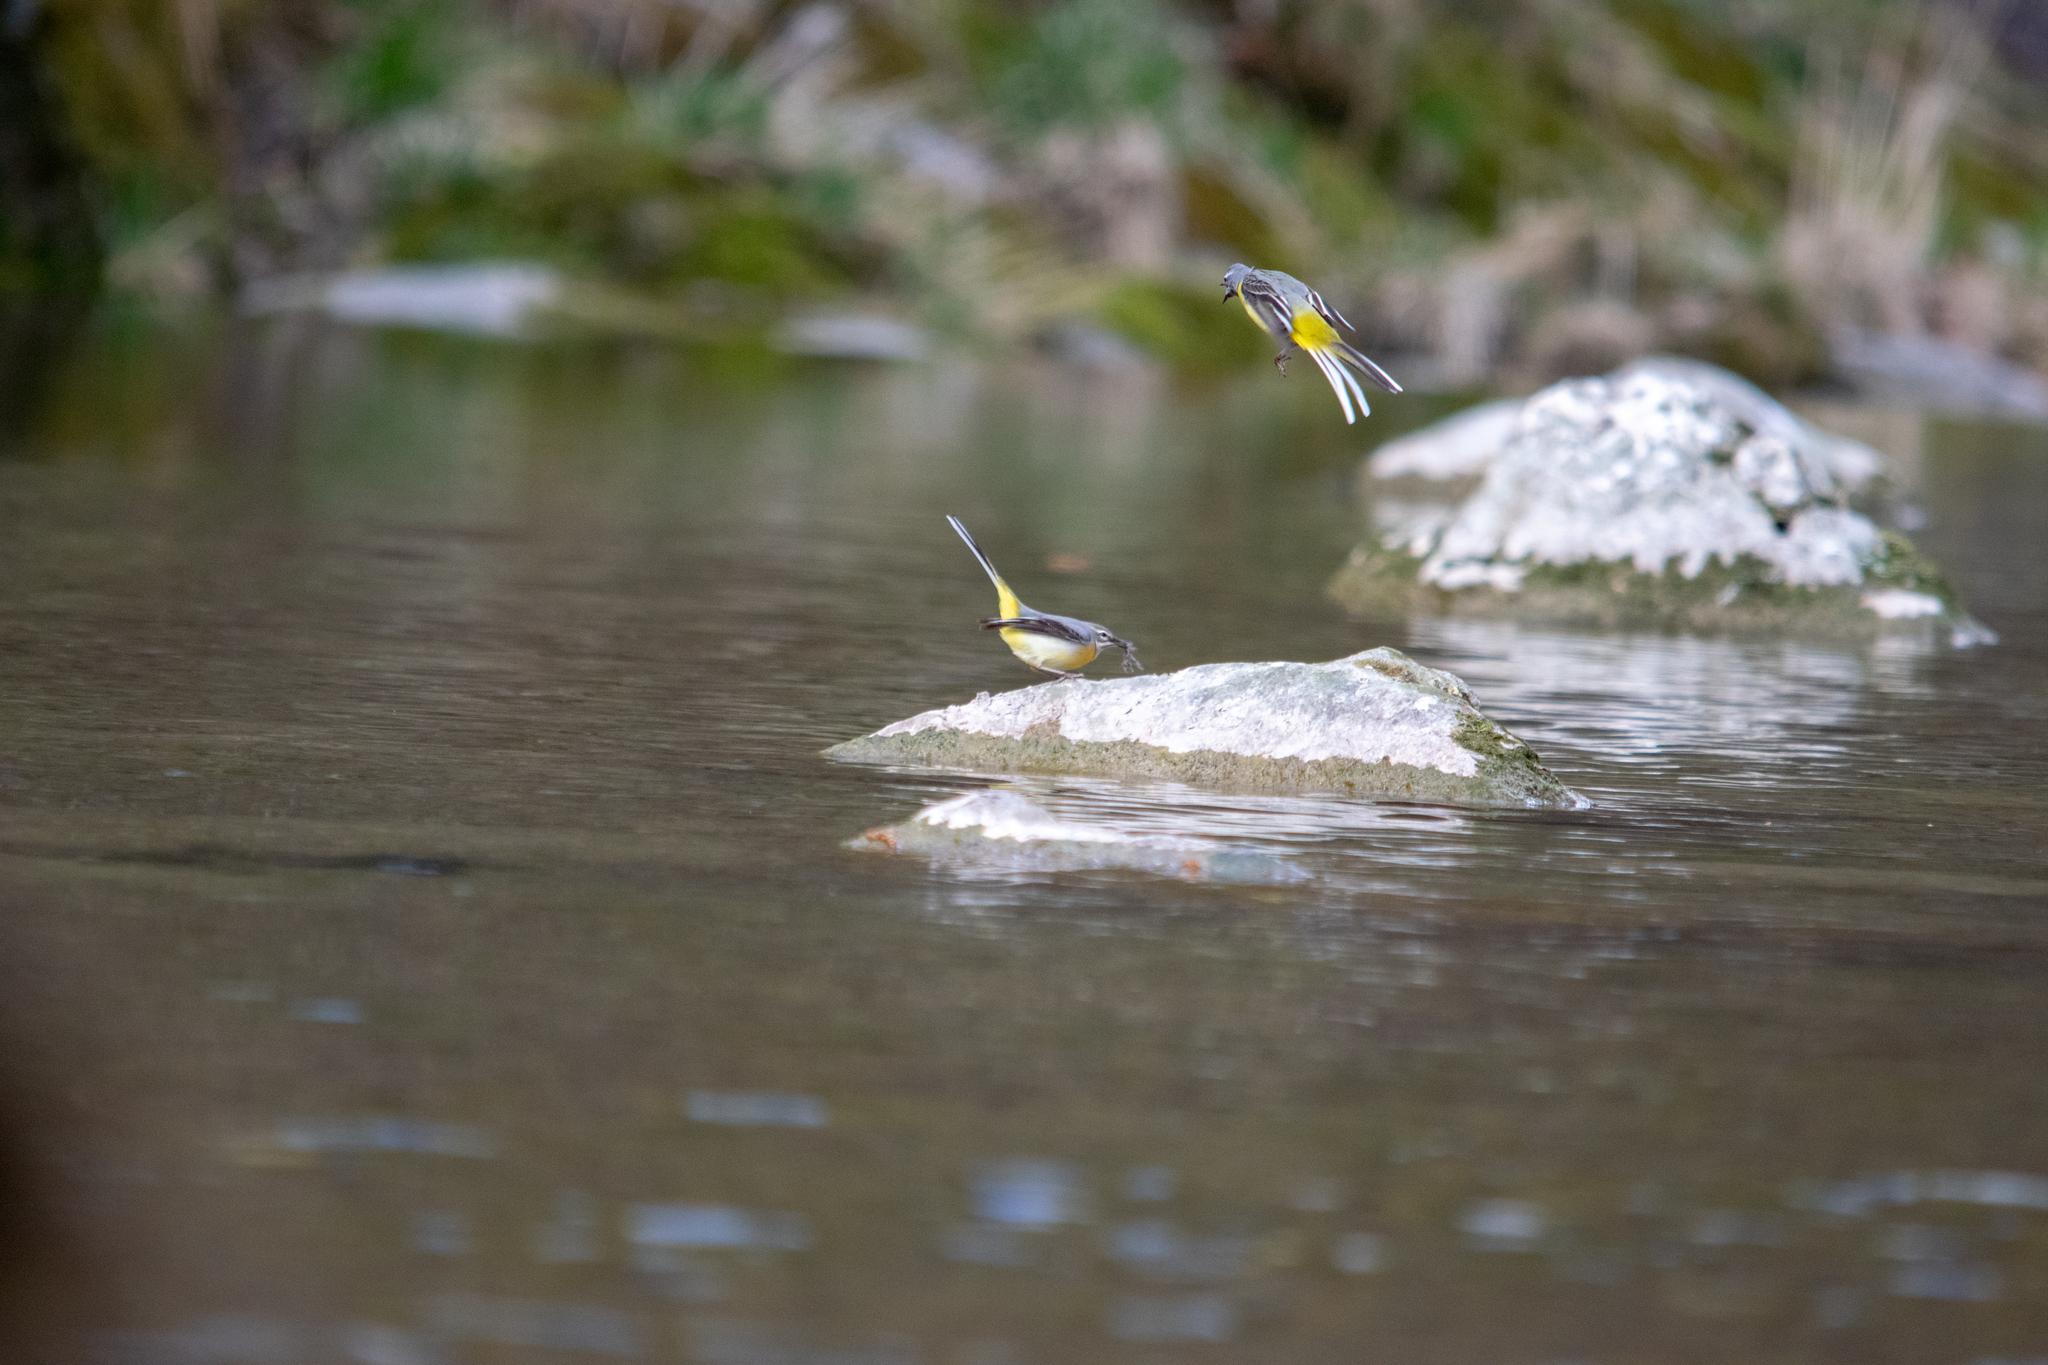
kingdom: Animalia
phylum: Chordata
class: Aves
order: Passeriformes
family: Motacillidae
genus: Motacilla
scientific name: Motacilla cinerea
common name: Grey wagtail
